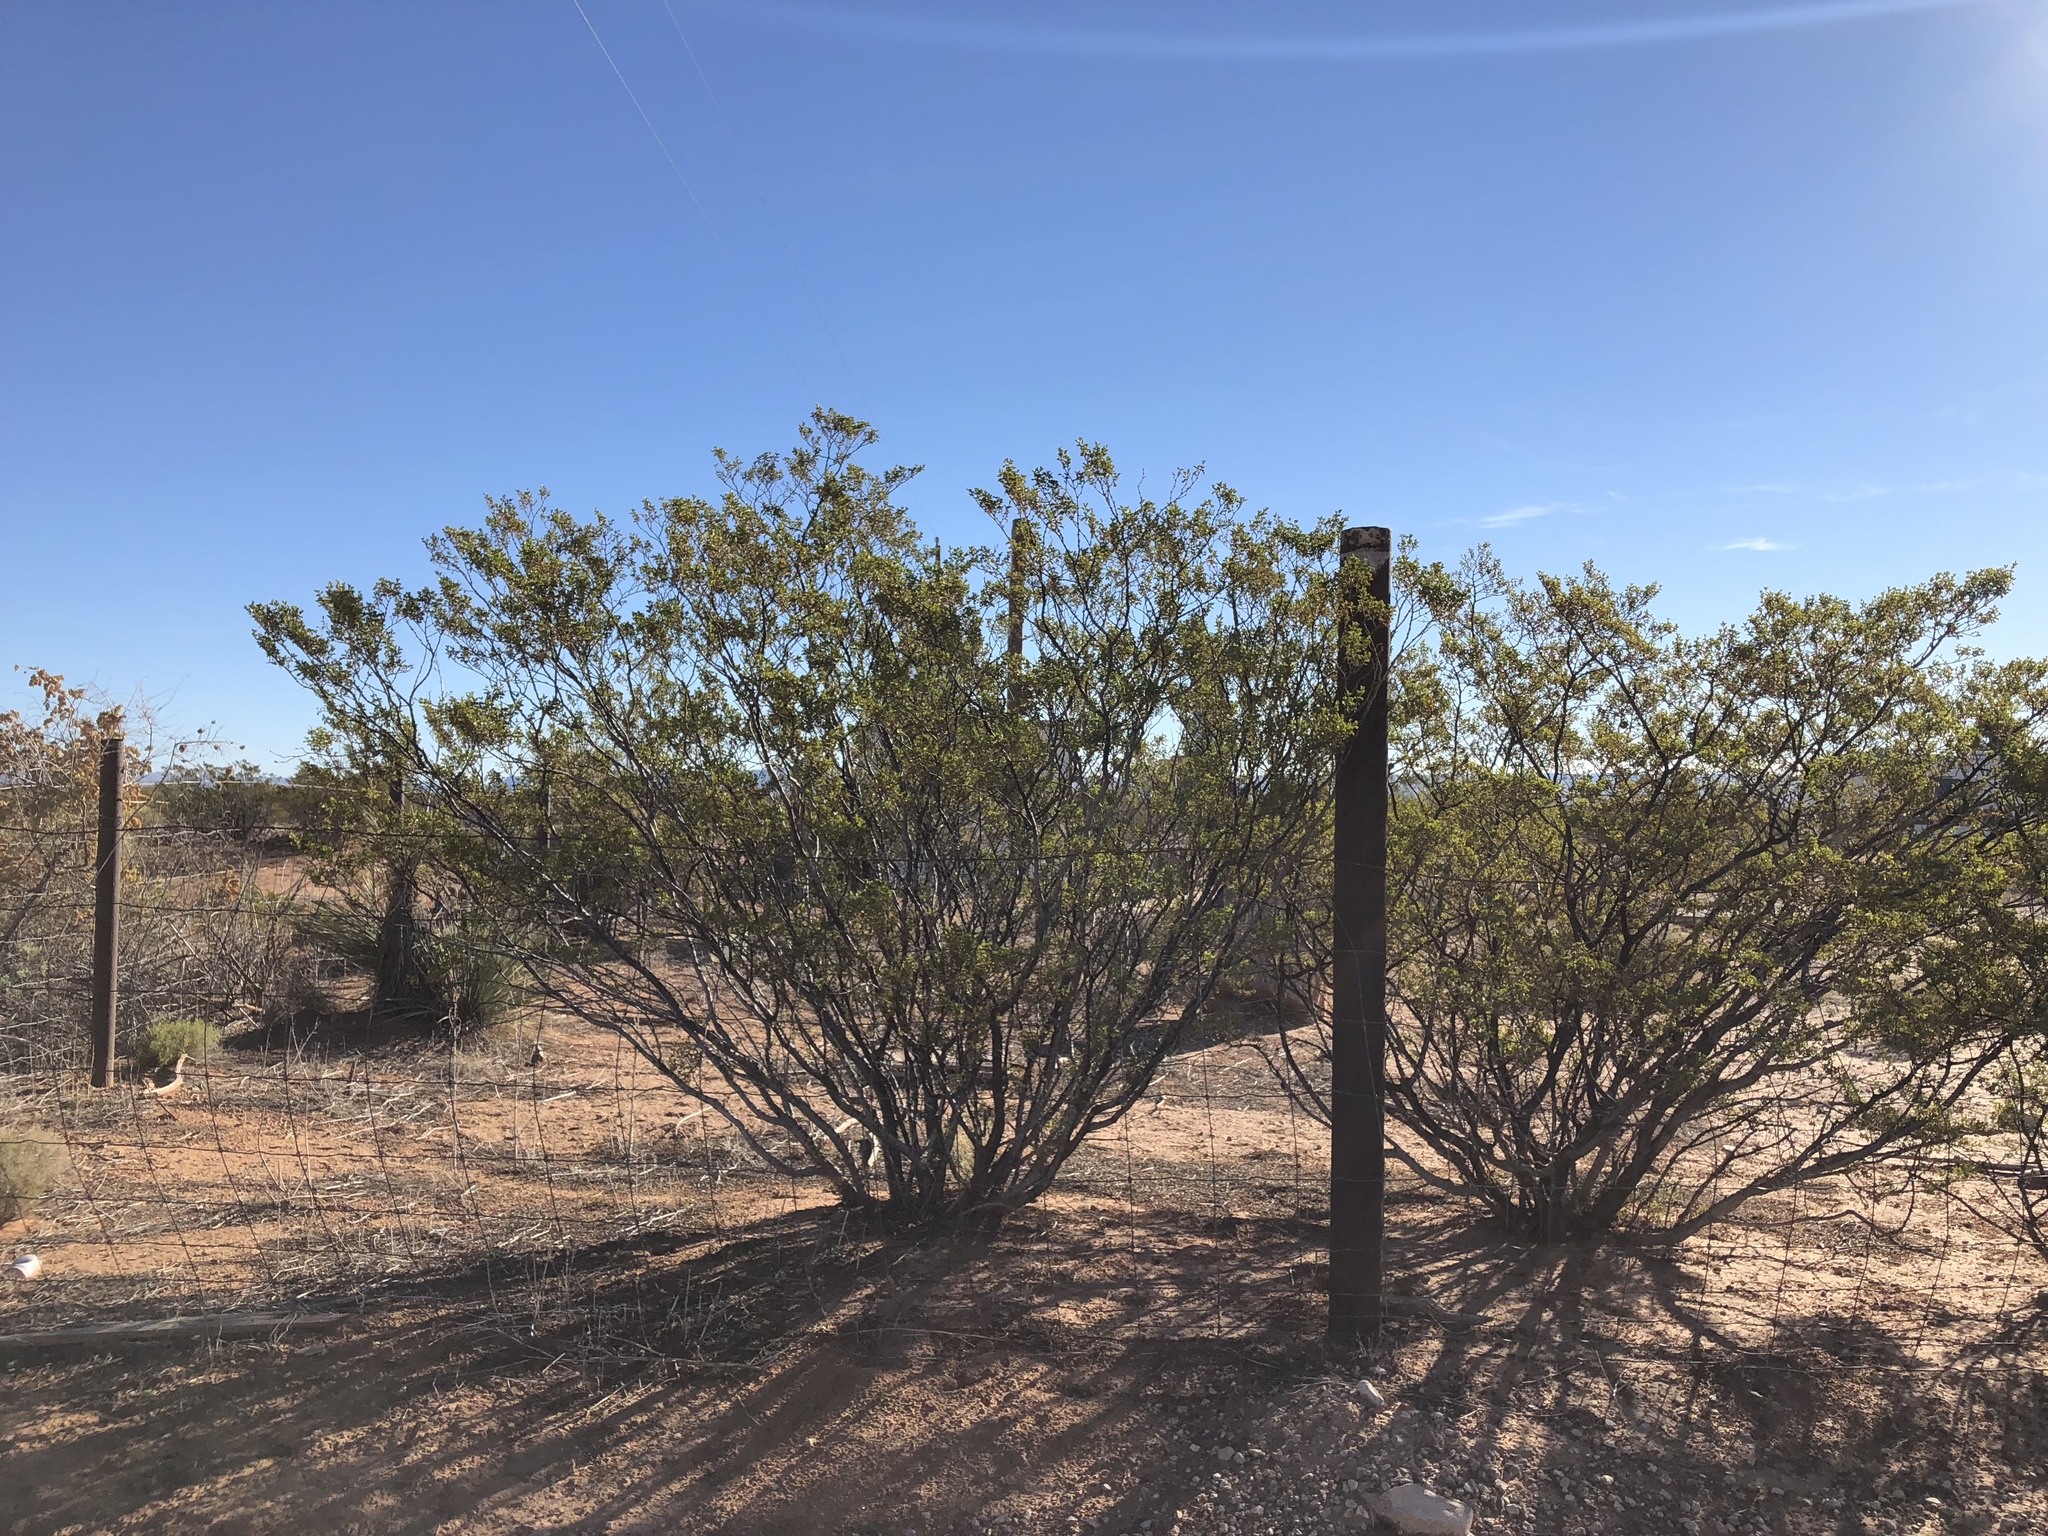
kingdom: Plantae
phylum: Tracheophyta
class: Magnoliopsida
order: Zygophyllales
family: Zygophyllaceae
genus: Larrea
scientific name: Larrea tridentata
